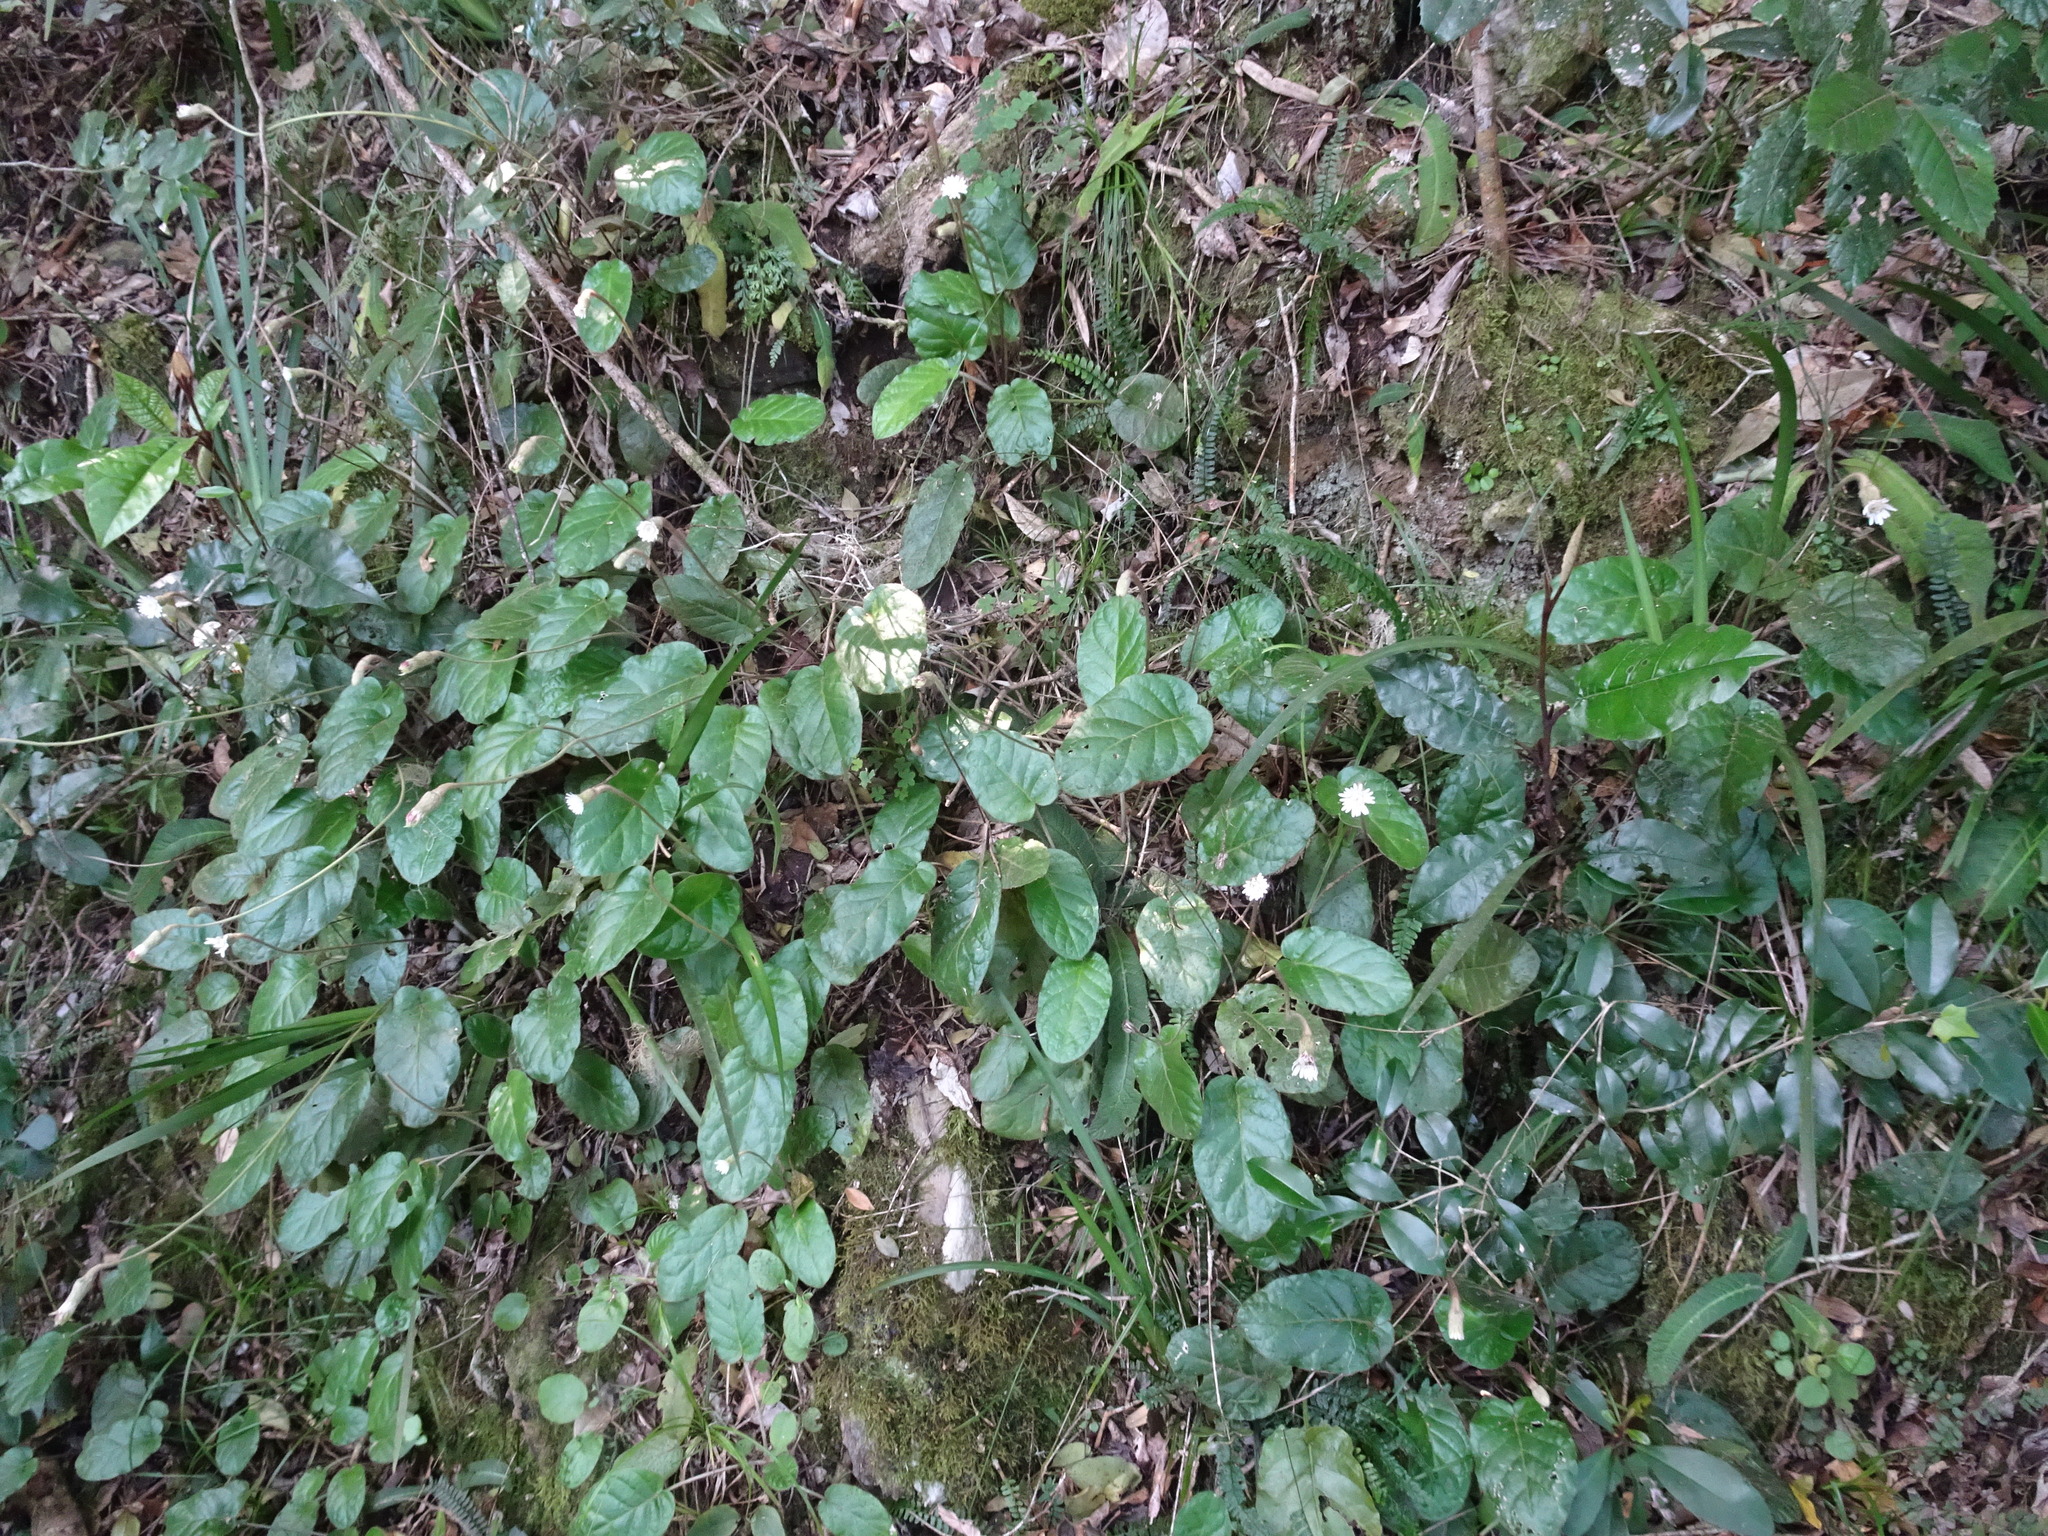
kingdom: Plantae
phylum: Tracheophyta
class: Magnoliopsida
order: Asterales
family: Asteraceae
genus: Piloselloides
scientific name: Piloselloides cordata
